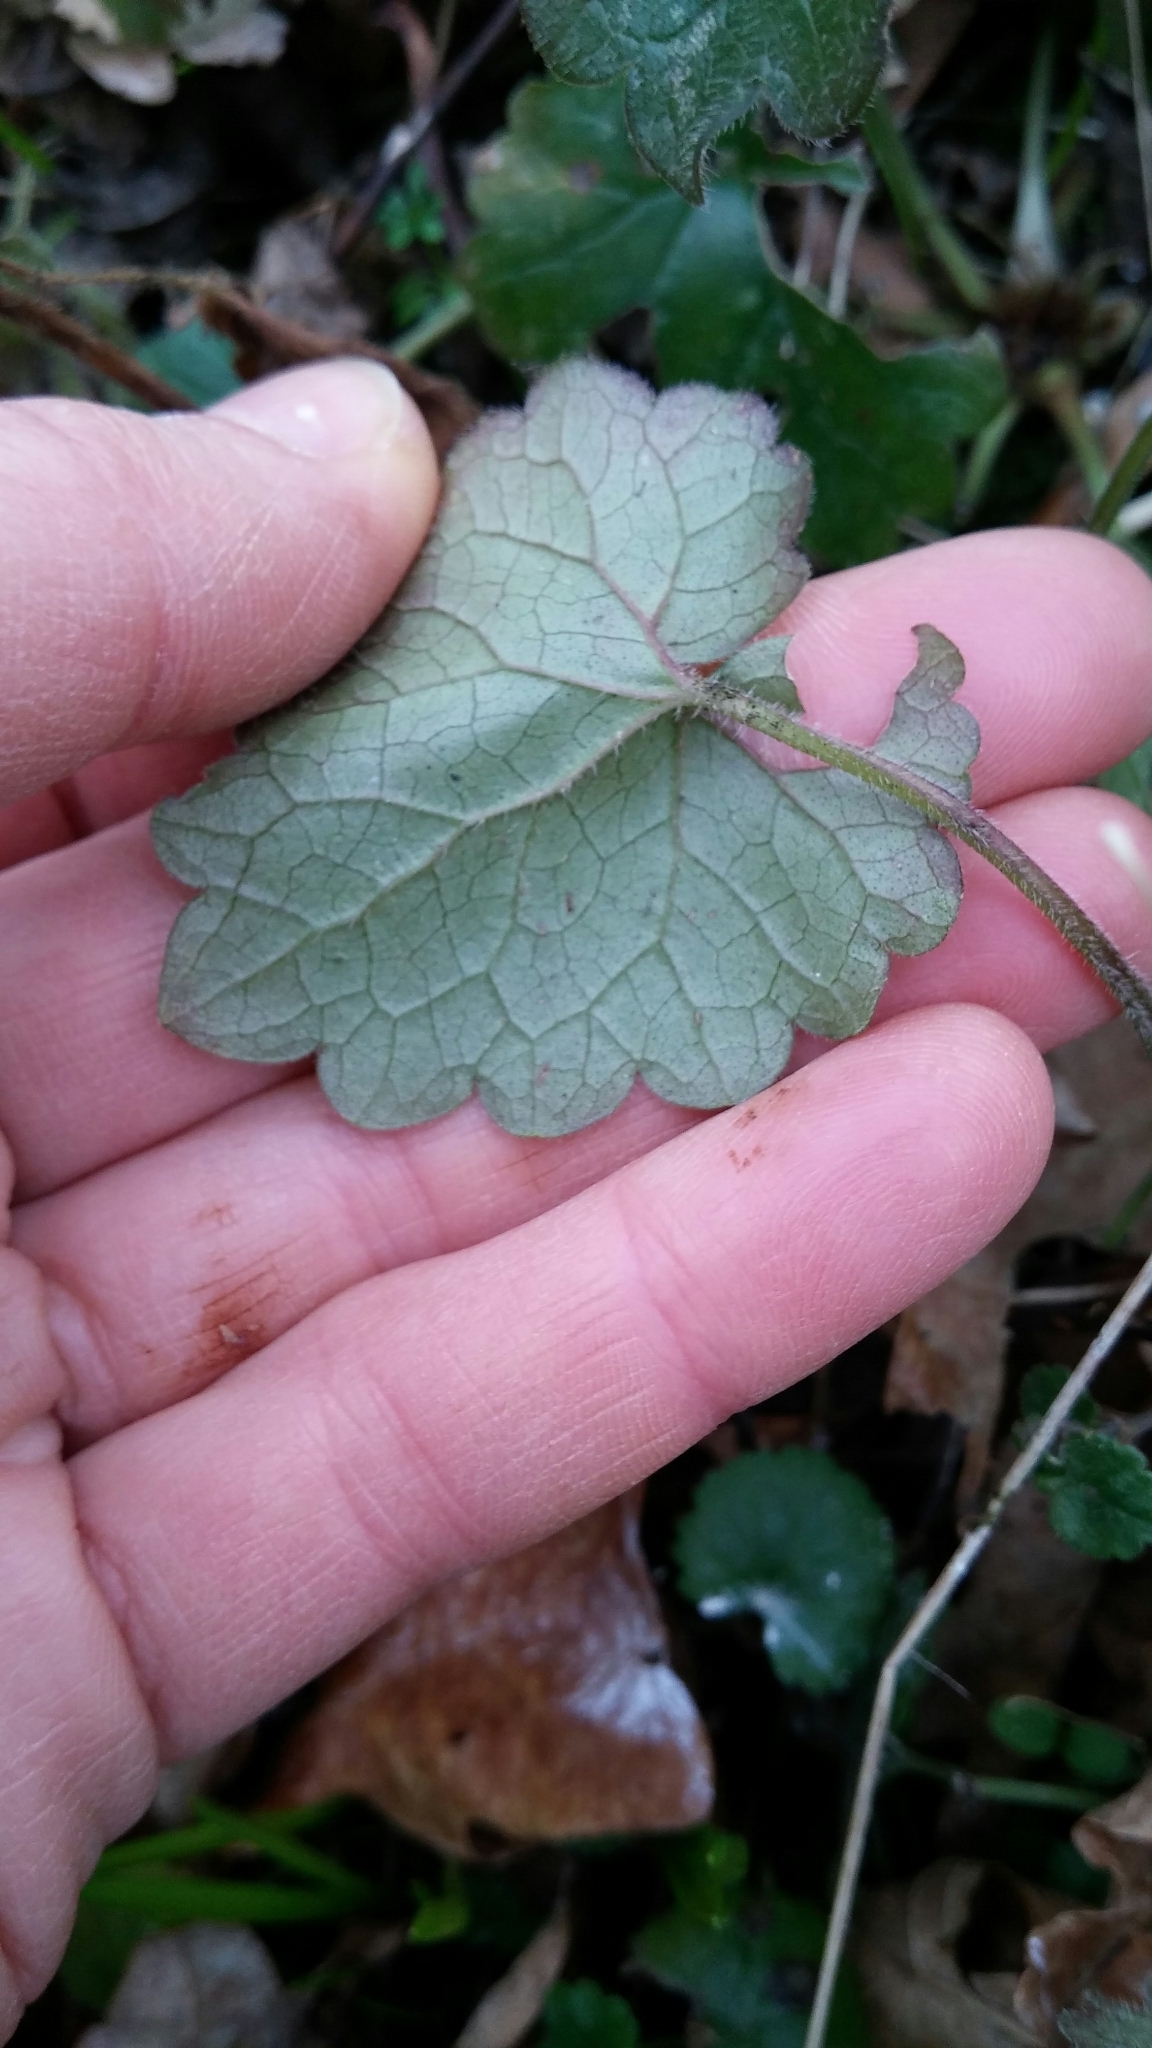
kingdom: Plantae
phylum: Tracheophyta
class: Magnoliopsida
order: Lamiales
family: Lamiaceae
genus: Glechoma
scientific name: Glechoma hederacea
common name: Ground ivy
